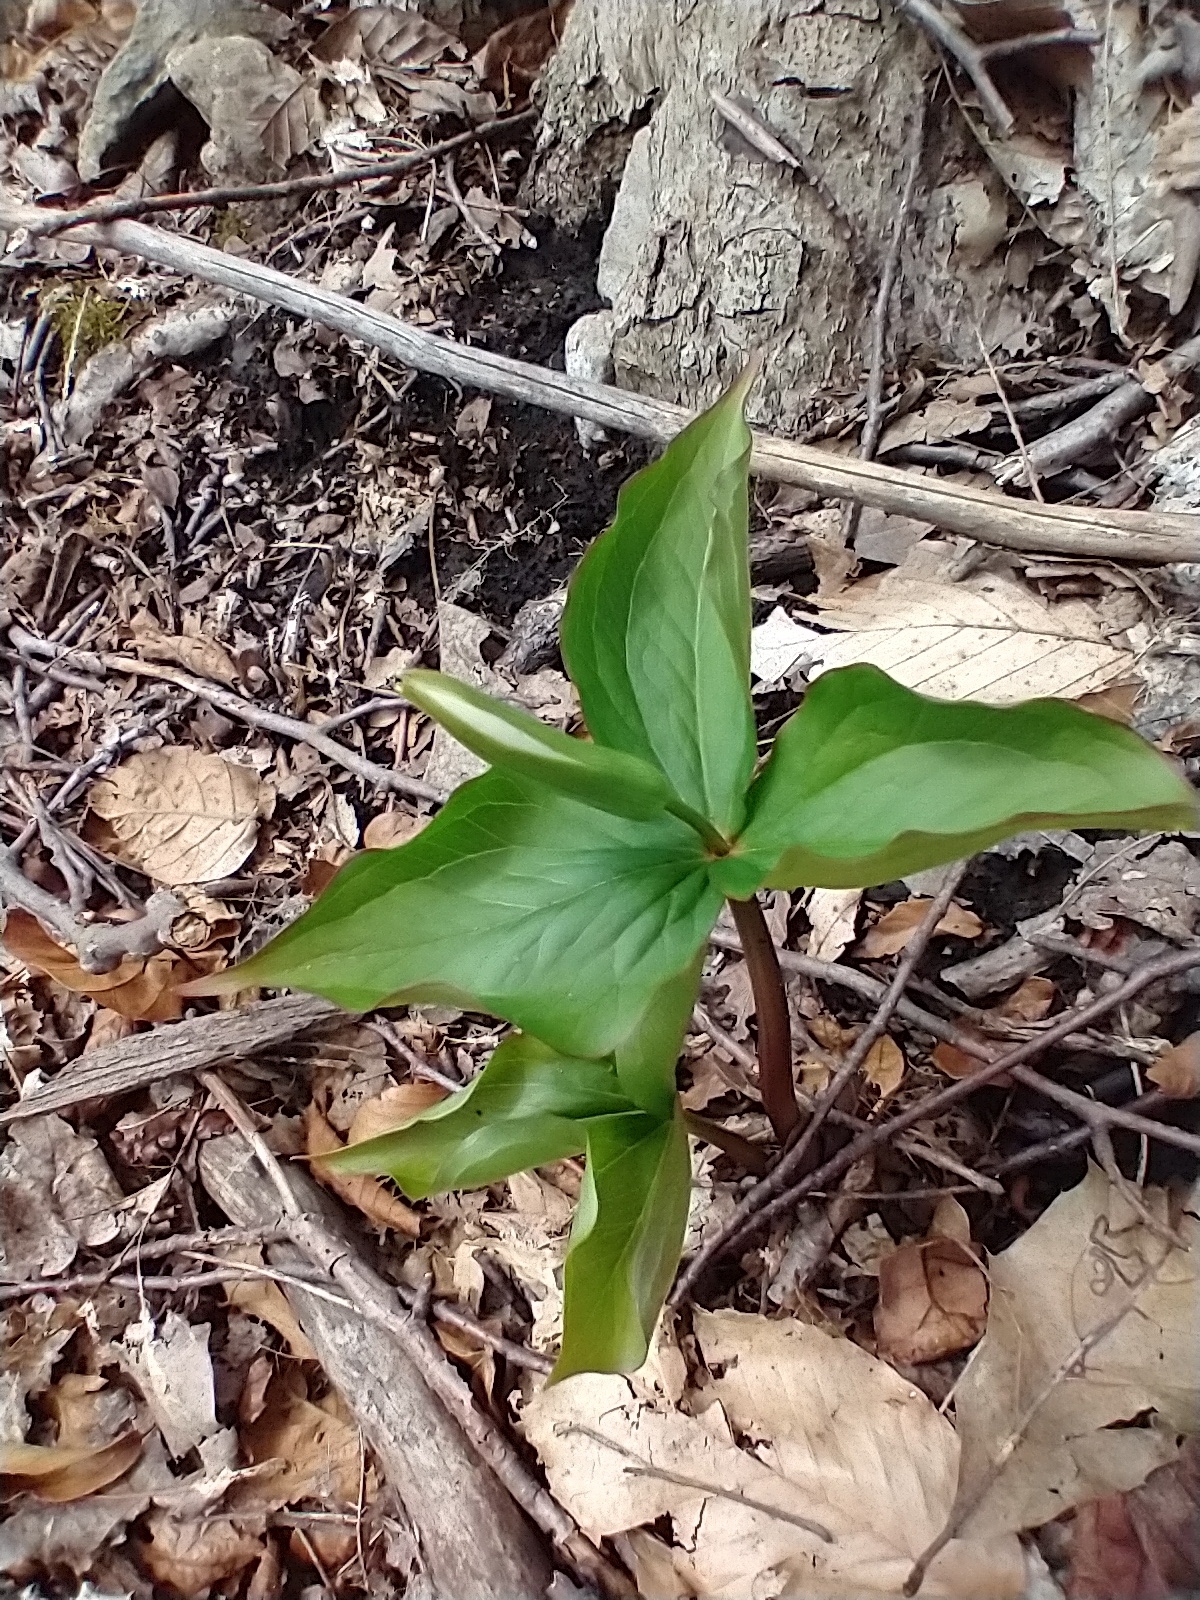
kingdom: Plantae
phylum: Tracheophyta
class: Liliopsida
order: Liliales
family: Melanthiaceae
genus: Trillium
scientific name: Trillium grandiflorum
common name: Great white trillium
